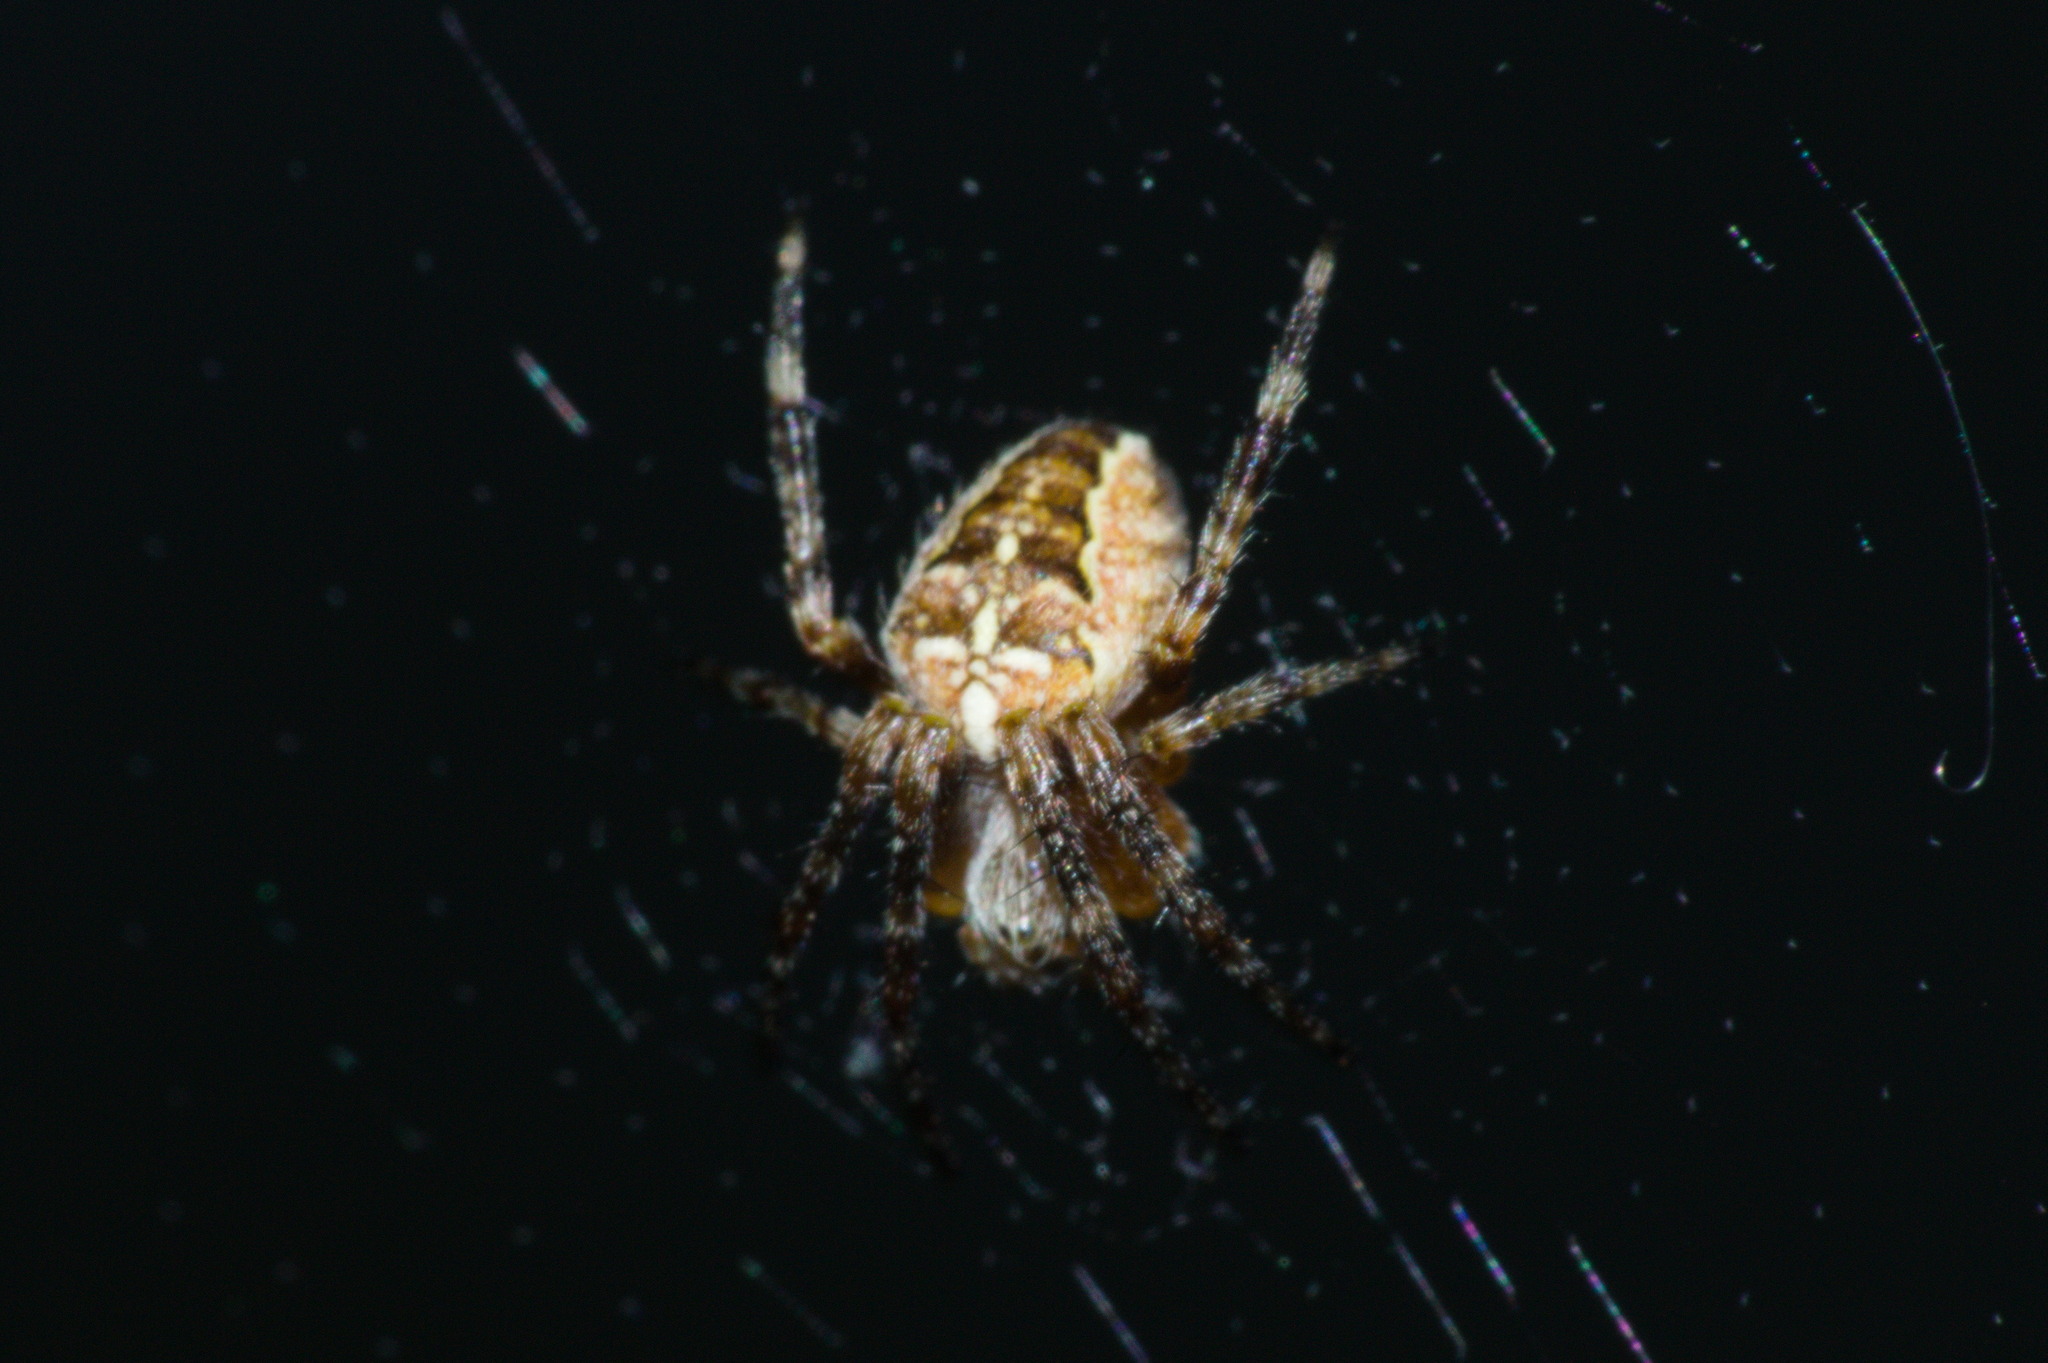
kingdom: Animalia
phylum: Arthropoda
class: Arachnida
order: Araneae
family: Araneidae
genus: Araneus
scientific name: Araneus diadematus
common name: Cross orbweaver
